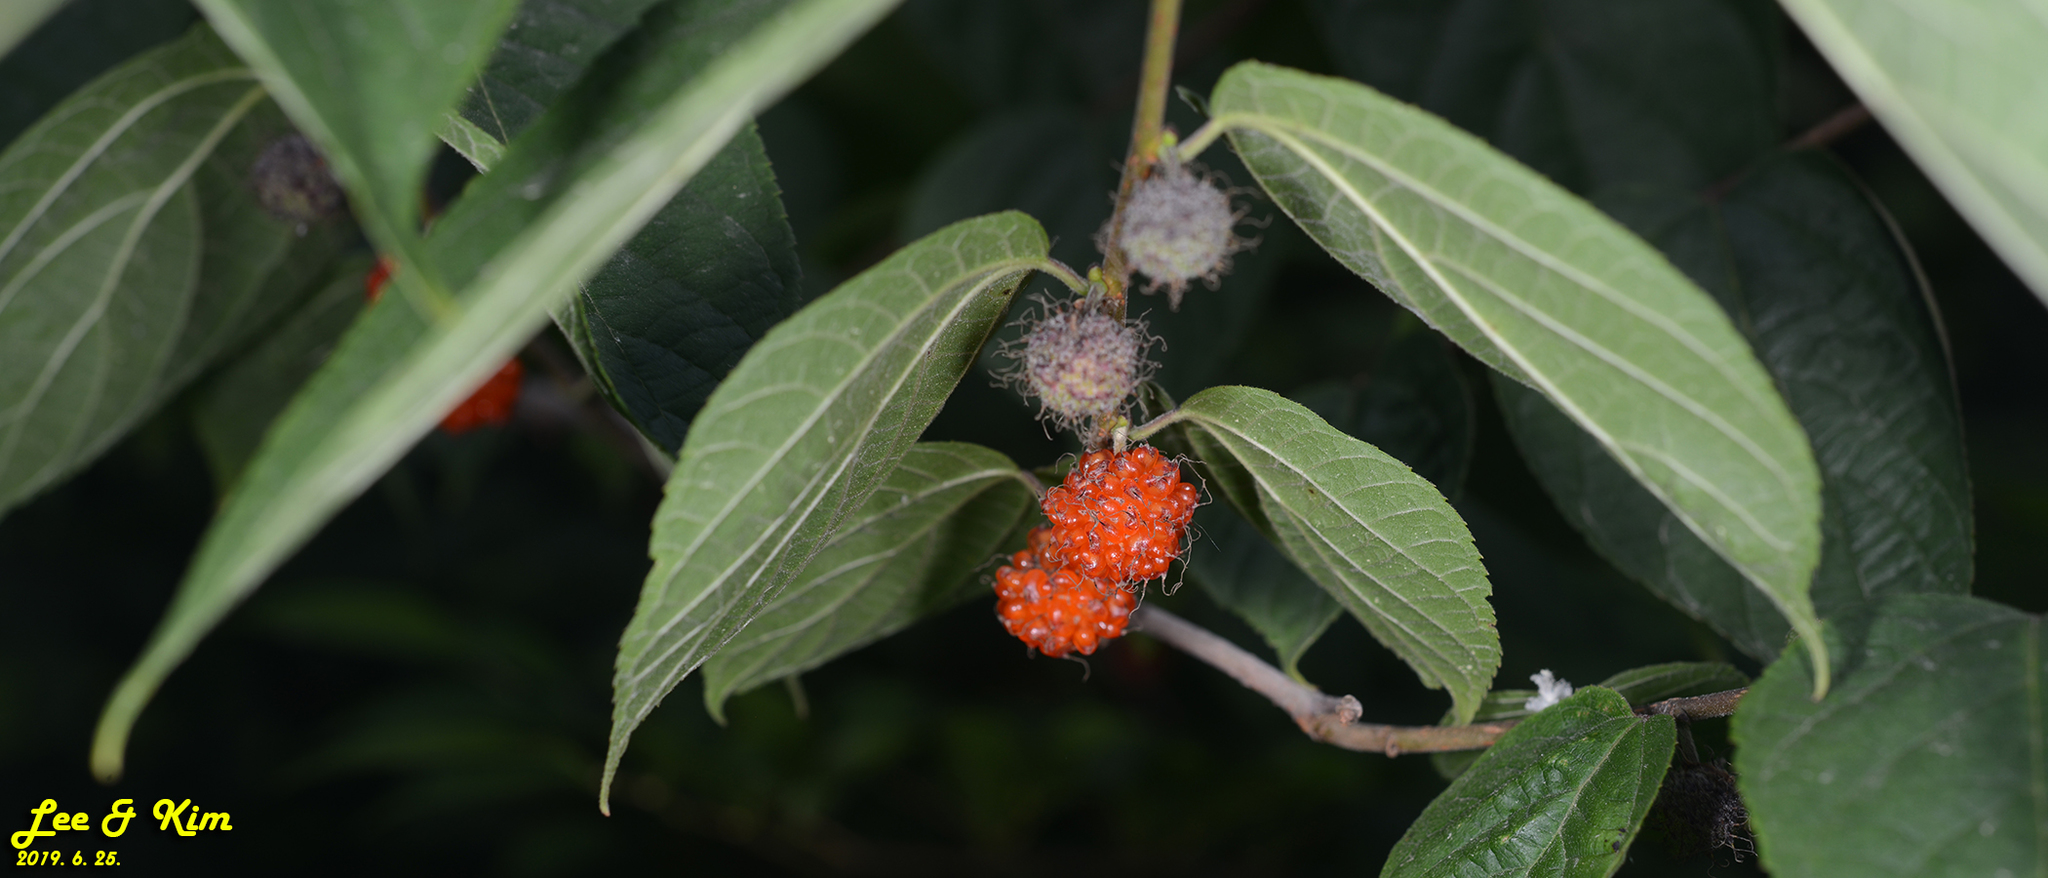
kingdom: Plantae
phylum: Tracheophyta
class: Magnoliopsida
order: Rosales
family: Moraceae
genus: Broussonetia
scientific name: Broussonetia papyrifera
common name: Paper mulberry
